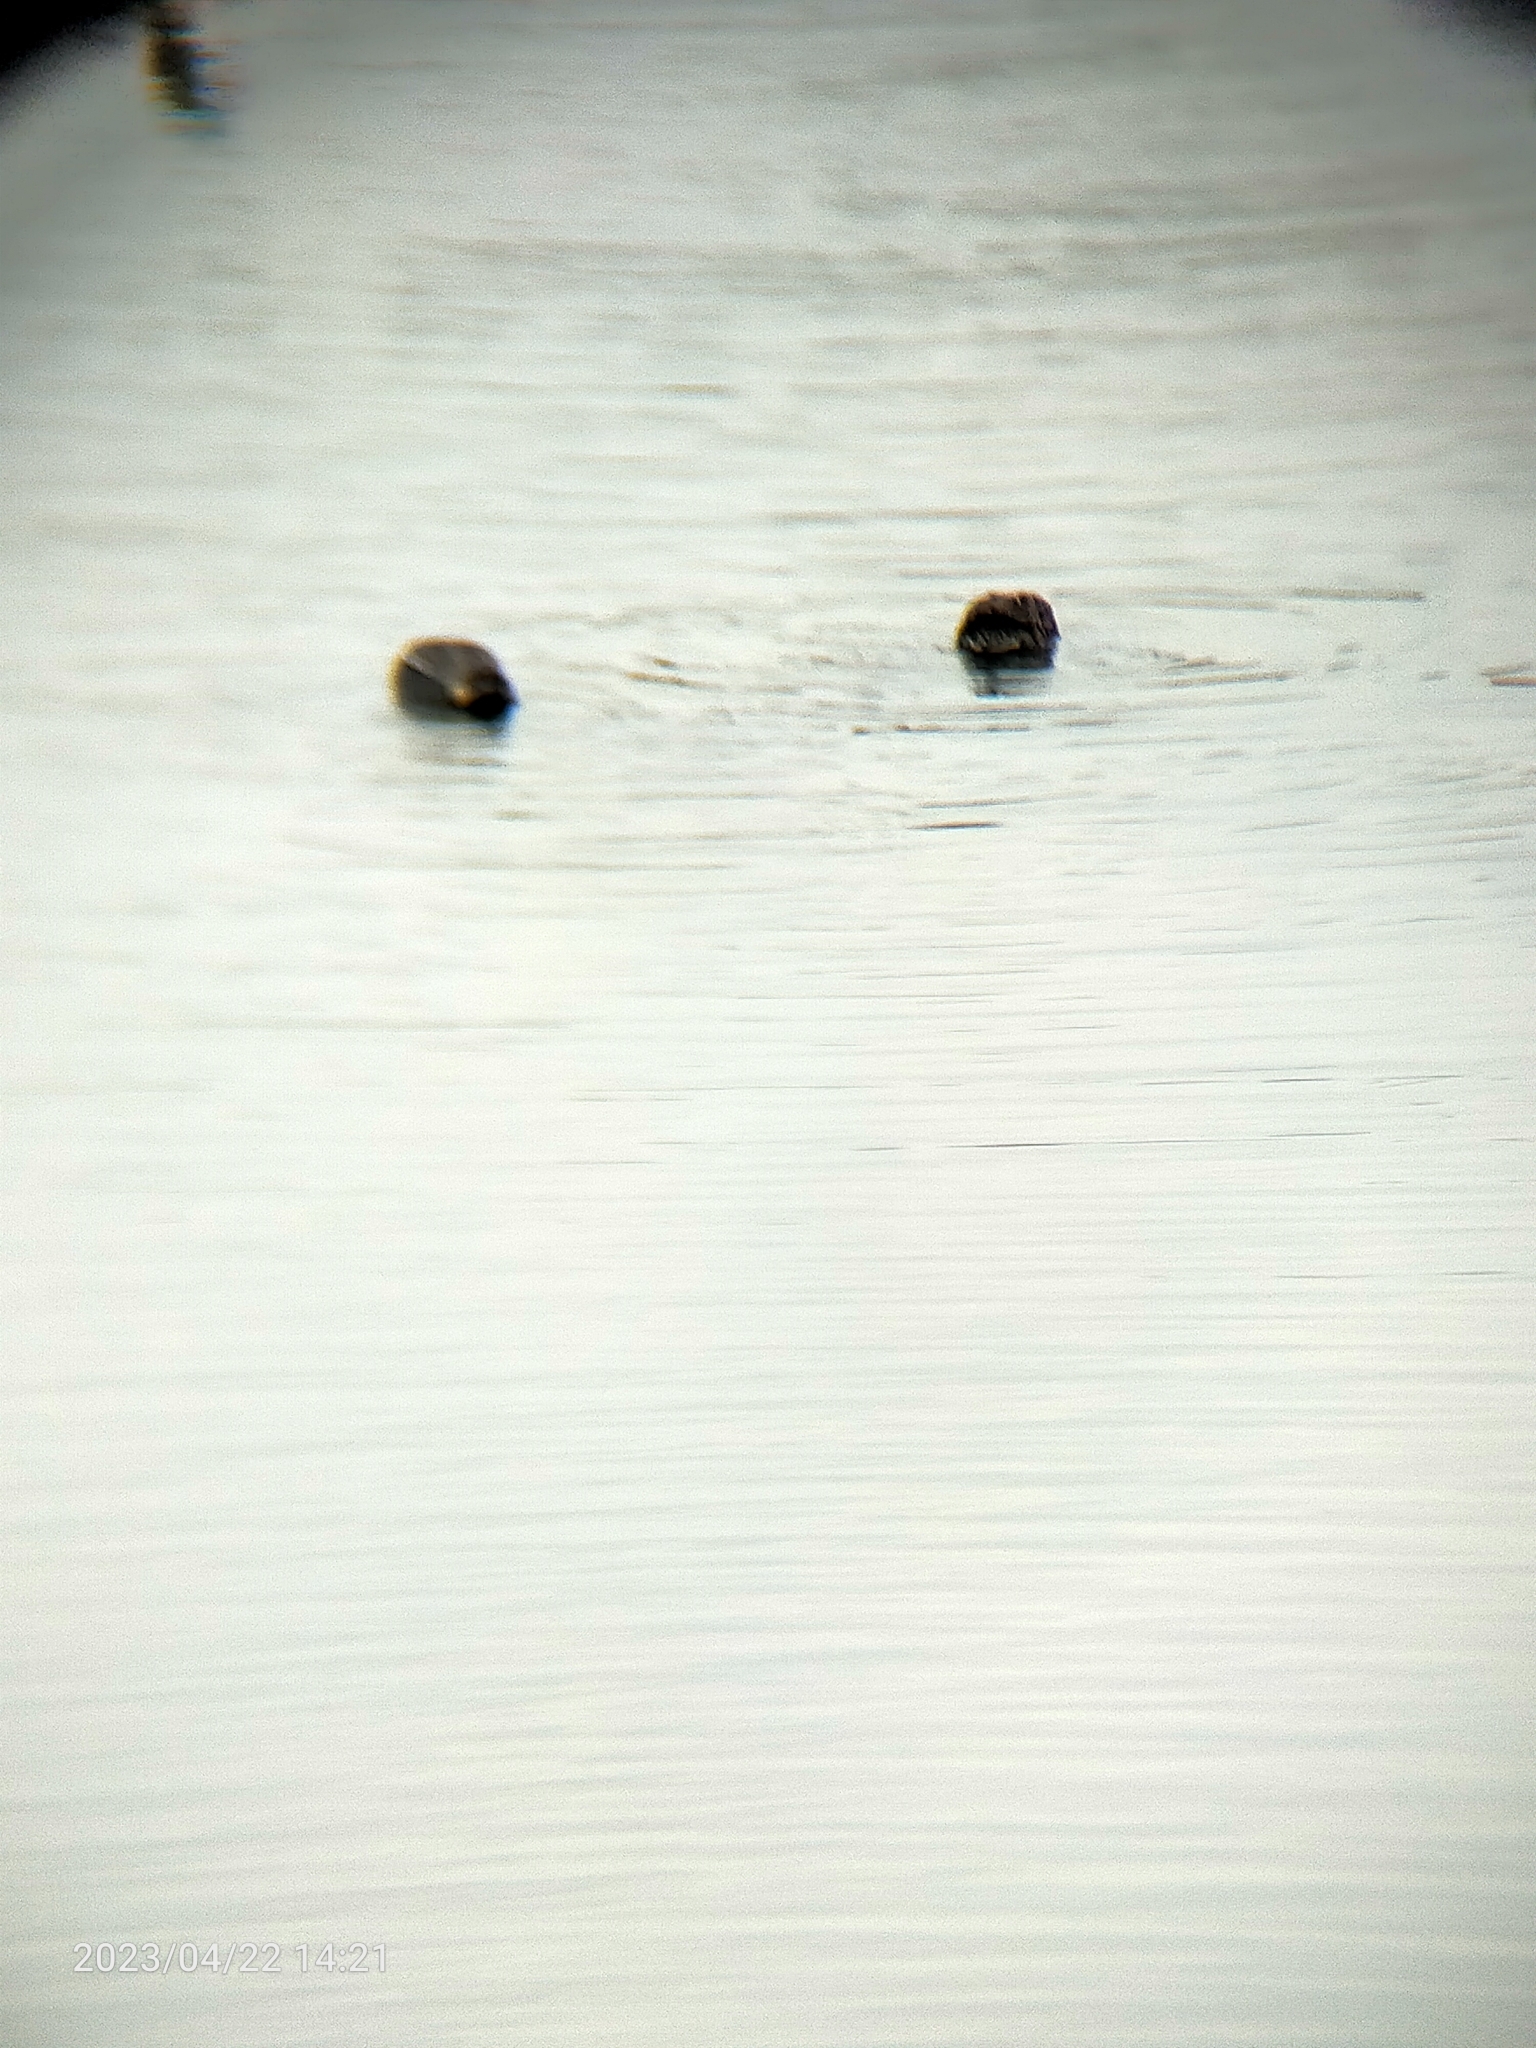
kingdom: Animalia
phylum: Chordata
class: Aves
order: Anseriformes
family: Anatidae
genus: Anas
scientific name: Anas crecca
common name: Eurasian teal
